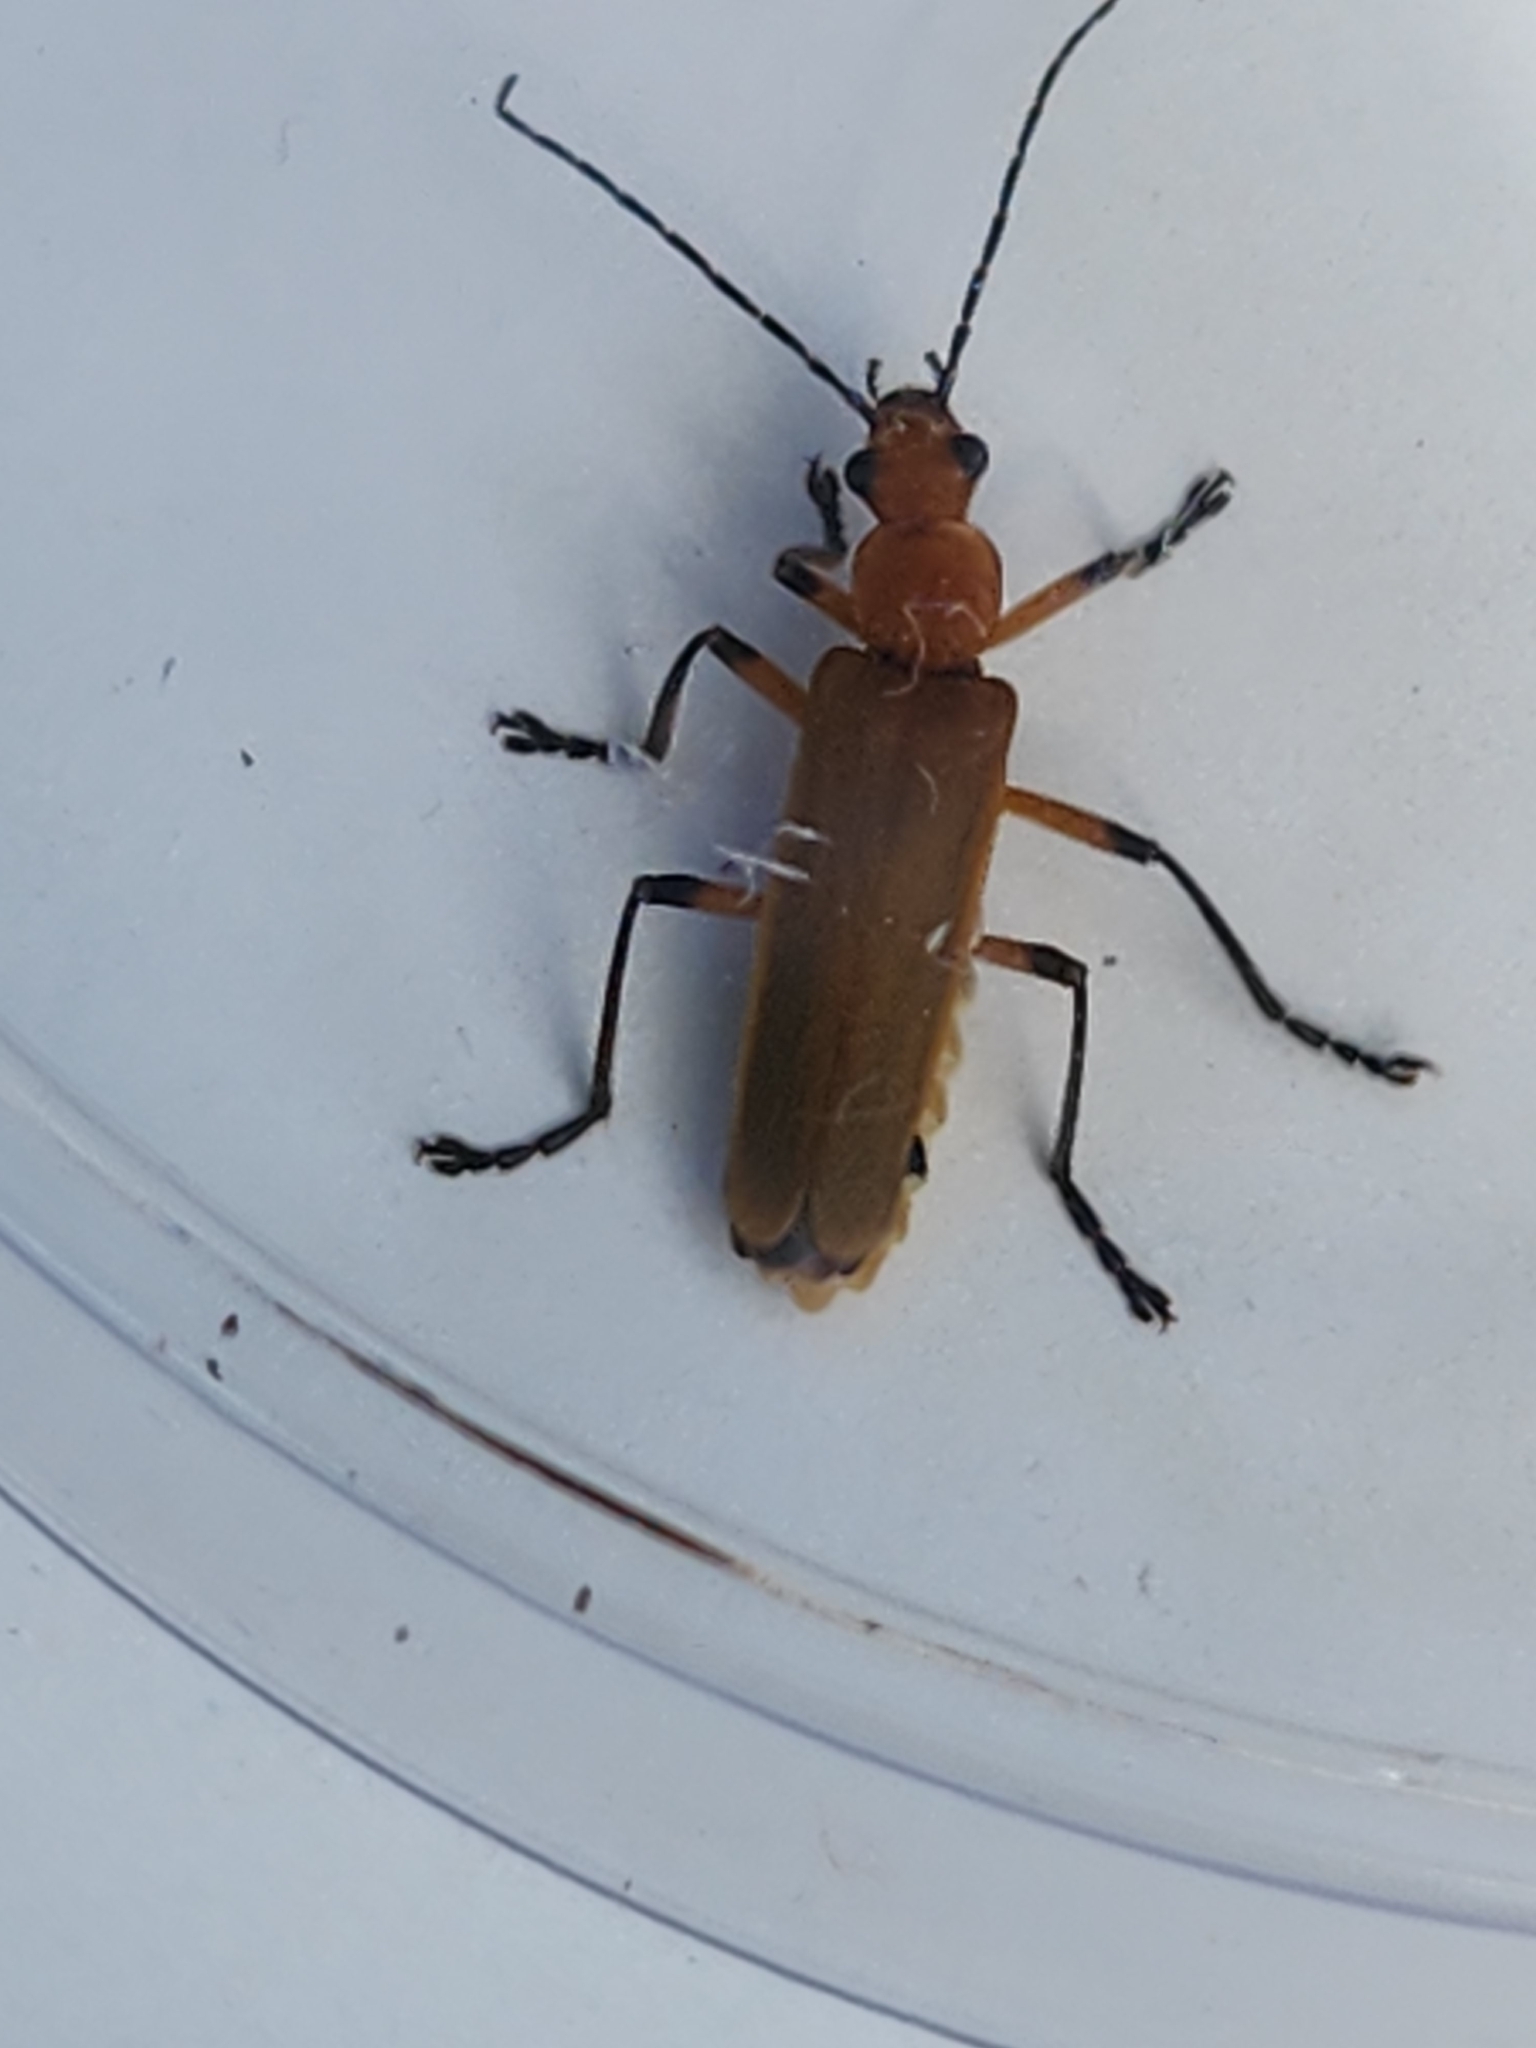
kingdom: Animalia
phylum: Arthropoda
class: Insecta
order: Coleoptera
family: Cantharidae
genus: Chauliognathus
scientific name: Chauliognathus
